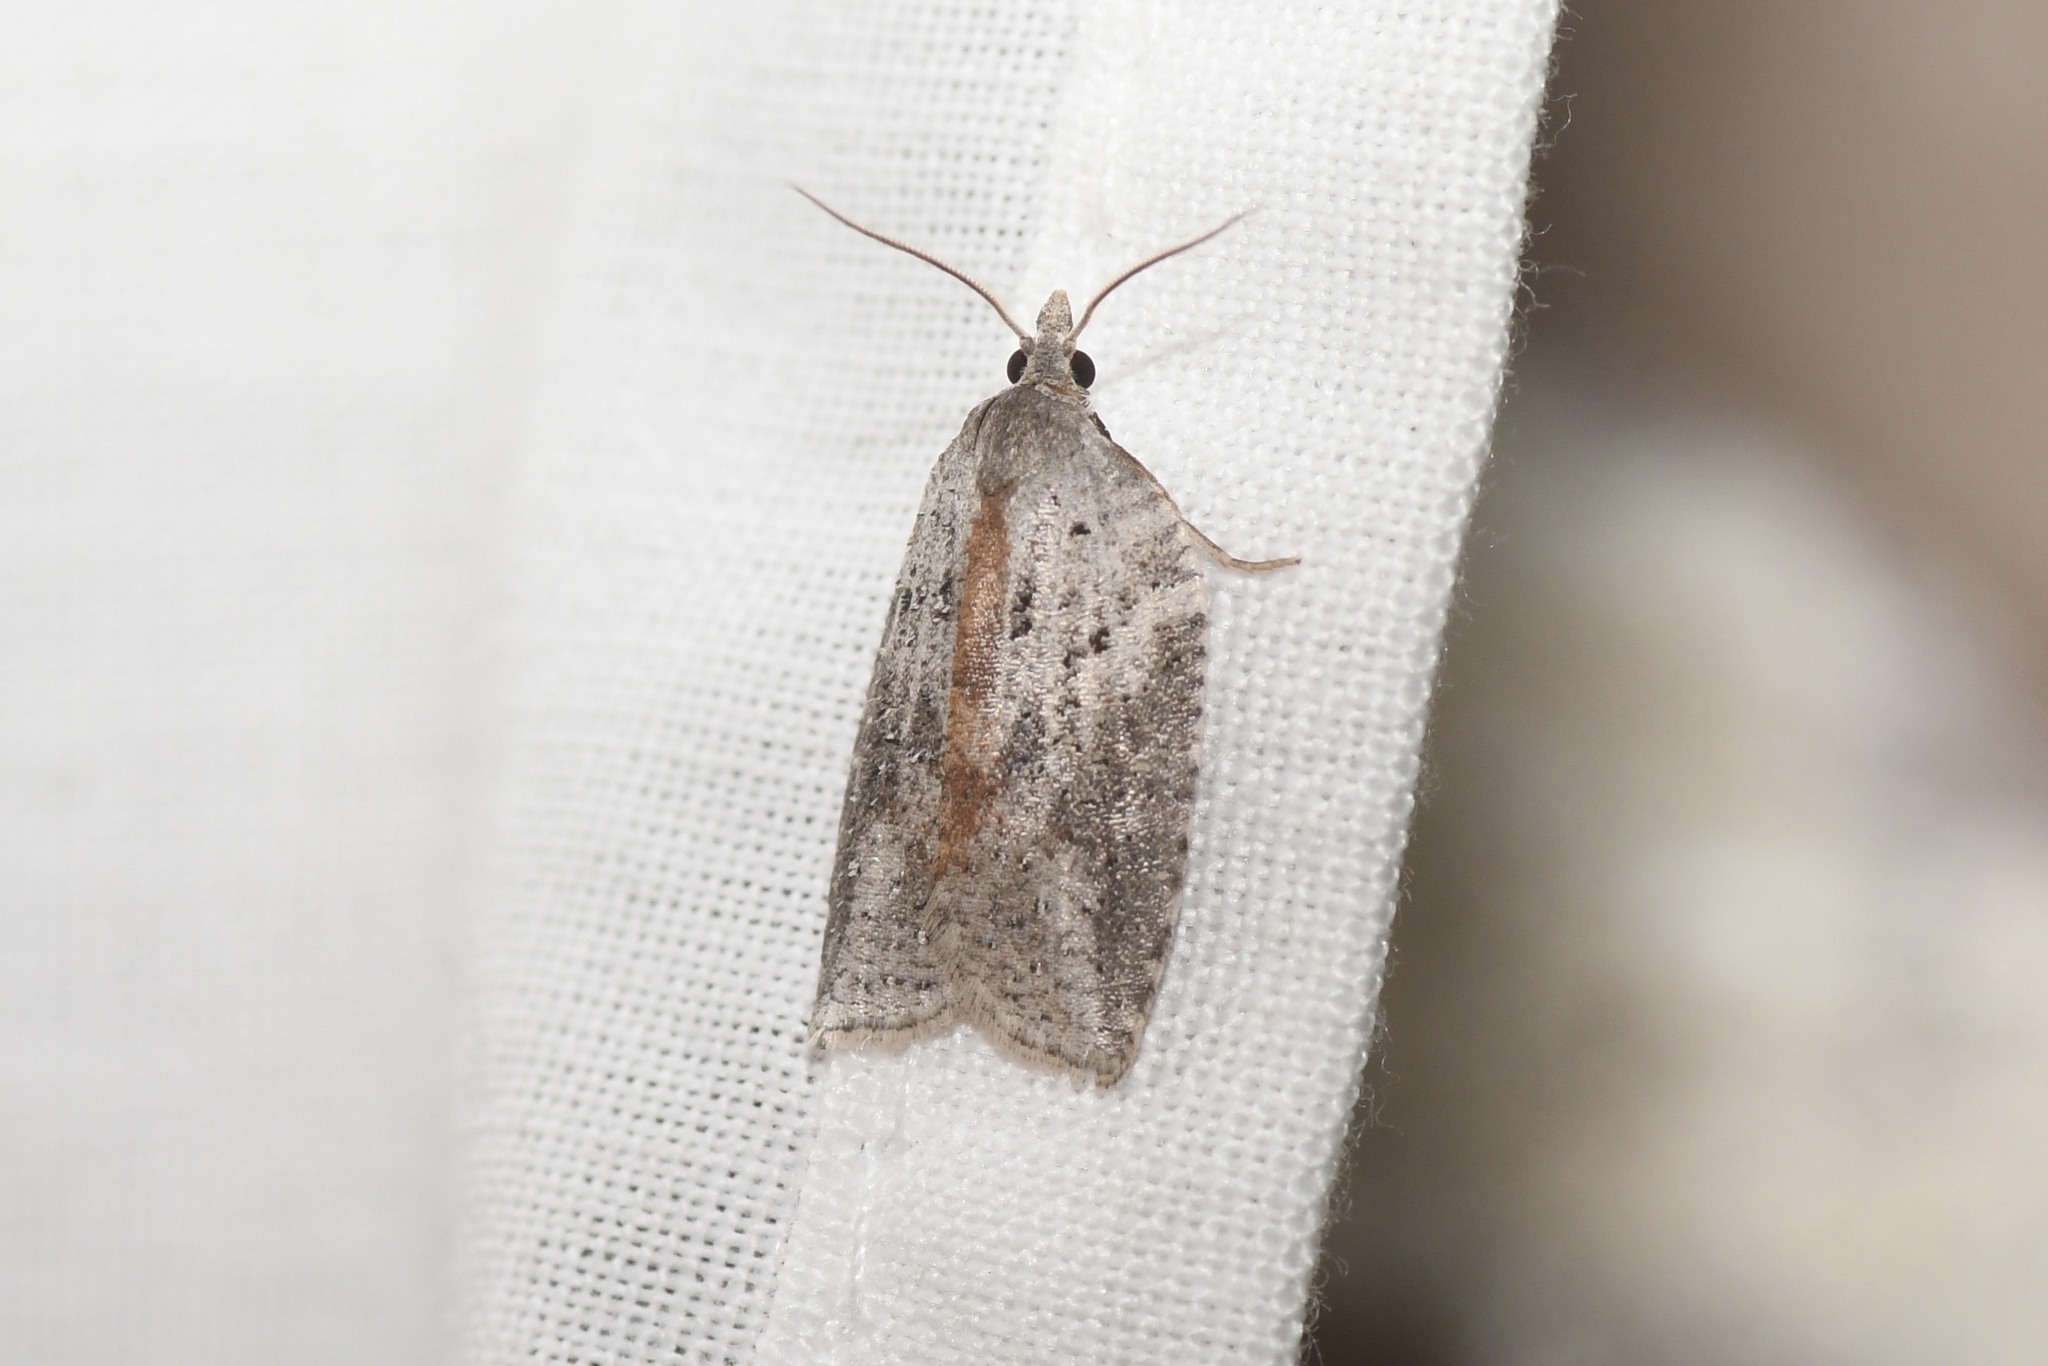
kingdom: Animalia
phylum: Arthropoda
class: Insecta
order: Lepidoptera
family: Tortricidae
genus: Amorbia
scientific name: Amorbia humerosana
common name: White-lined leafroller moth
